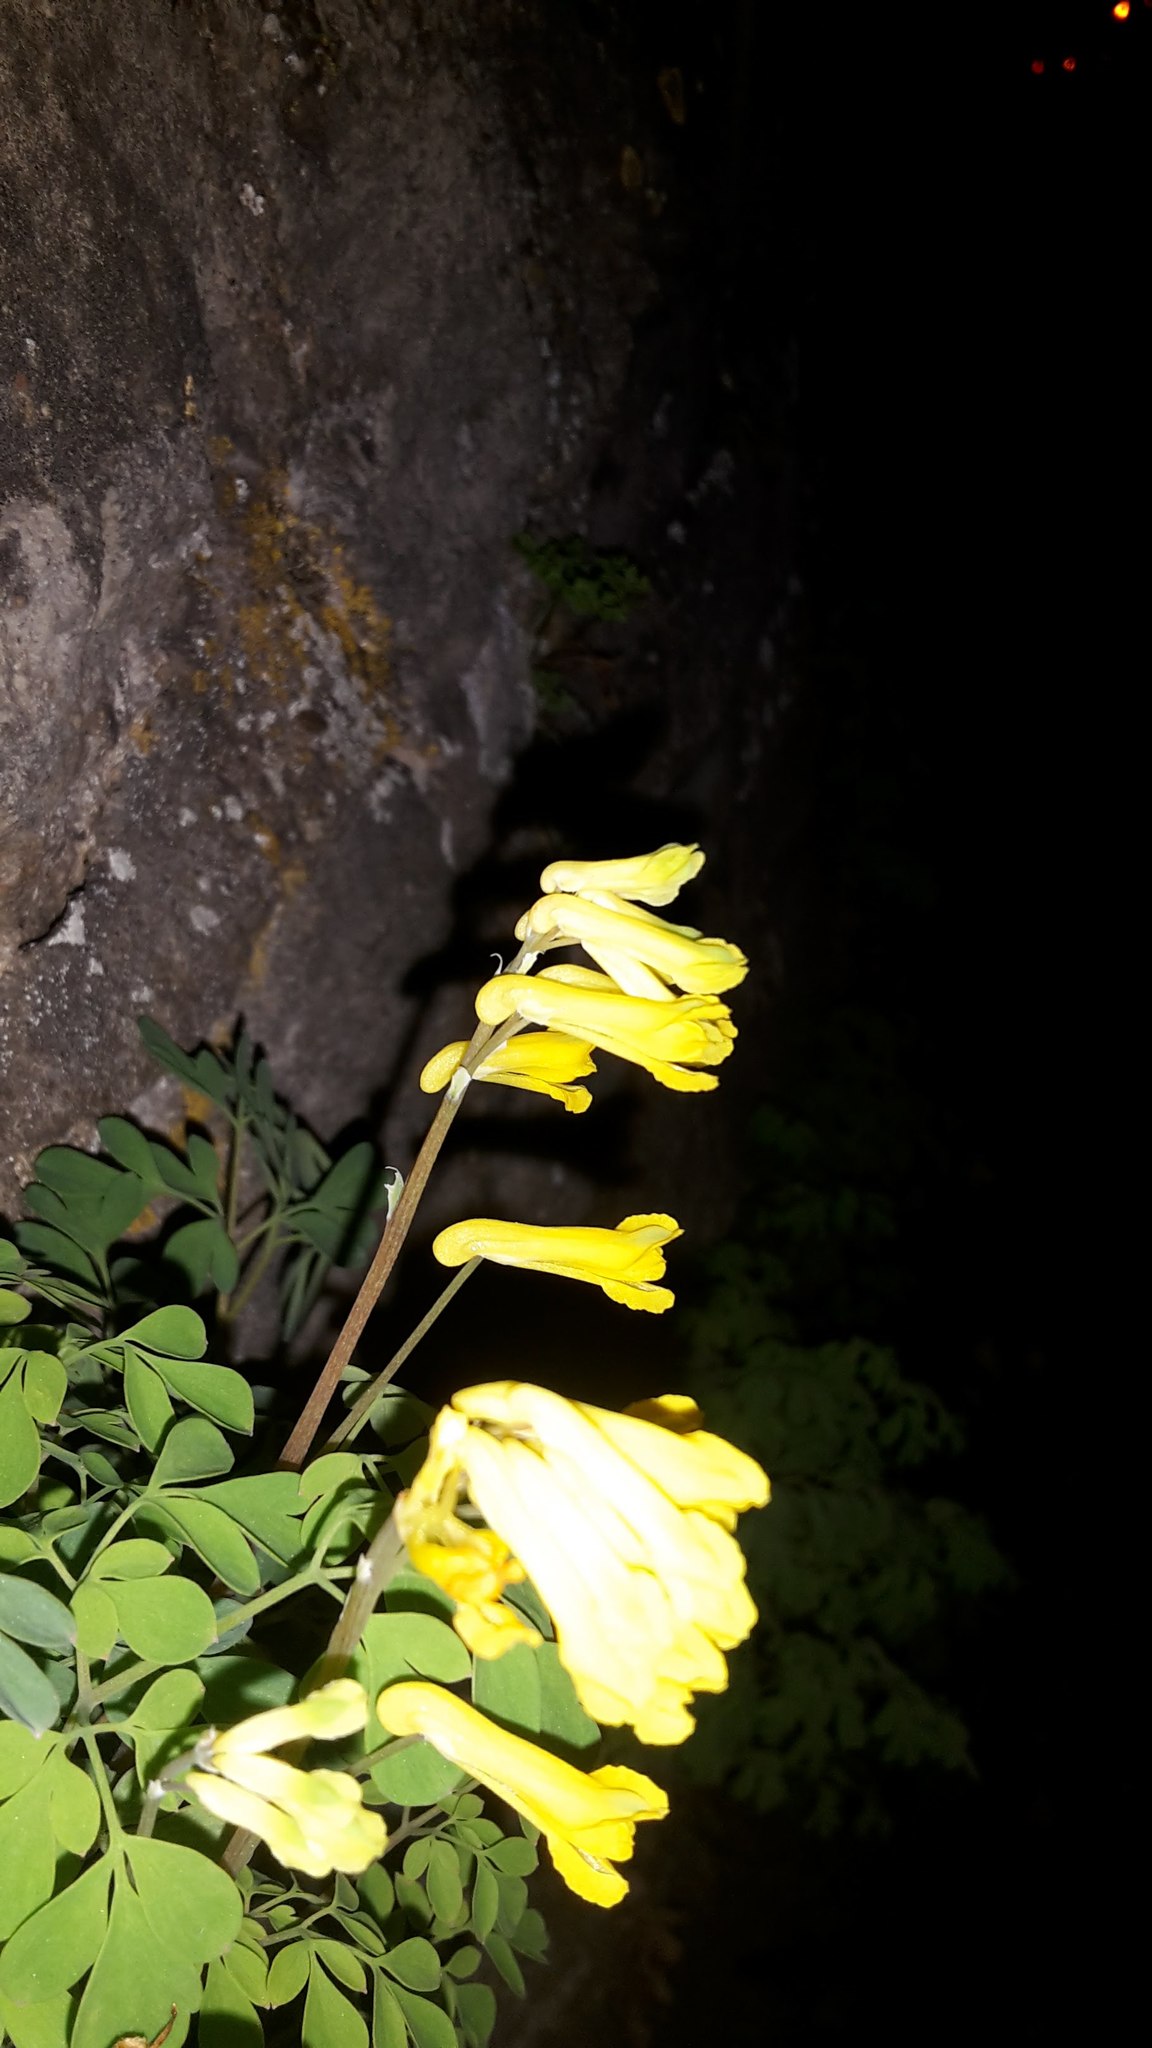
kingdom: Plantae
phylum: Tracheophyta
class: Magnoliopsida
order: Ranunculales
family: Papaveraceae
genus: Pseudofumaria
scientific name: Pseudofumaria lutea
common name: Yellow corydalis
